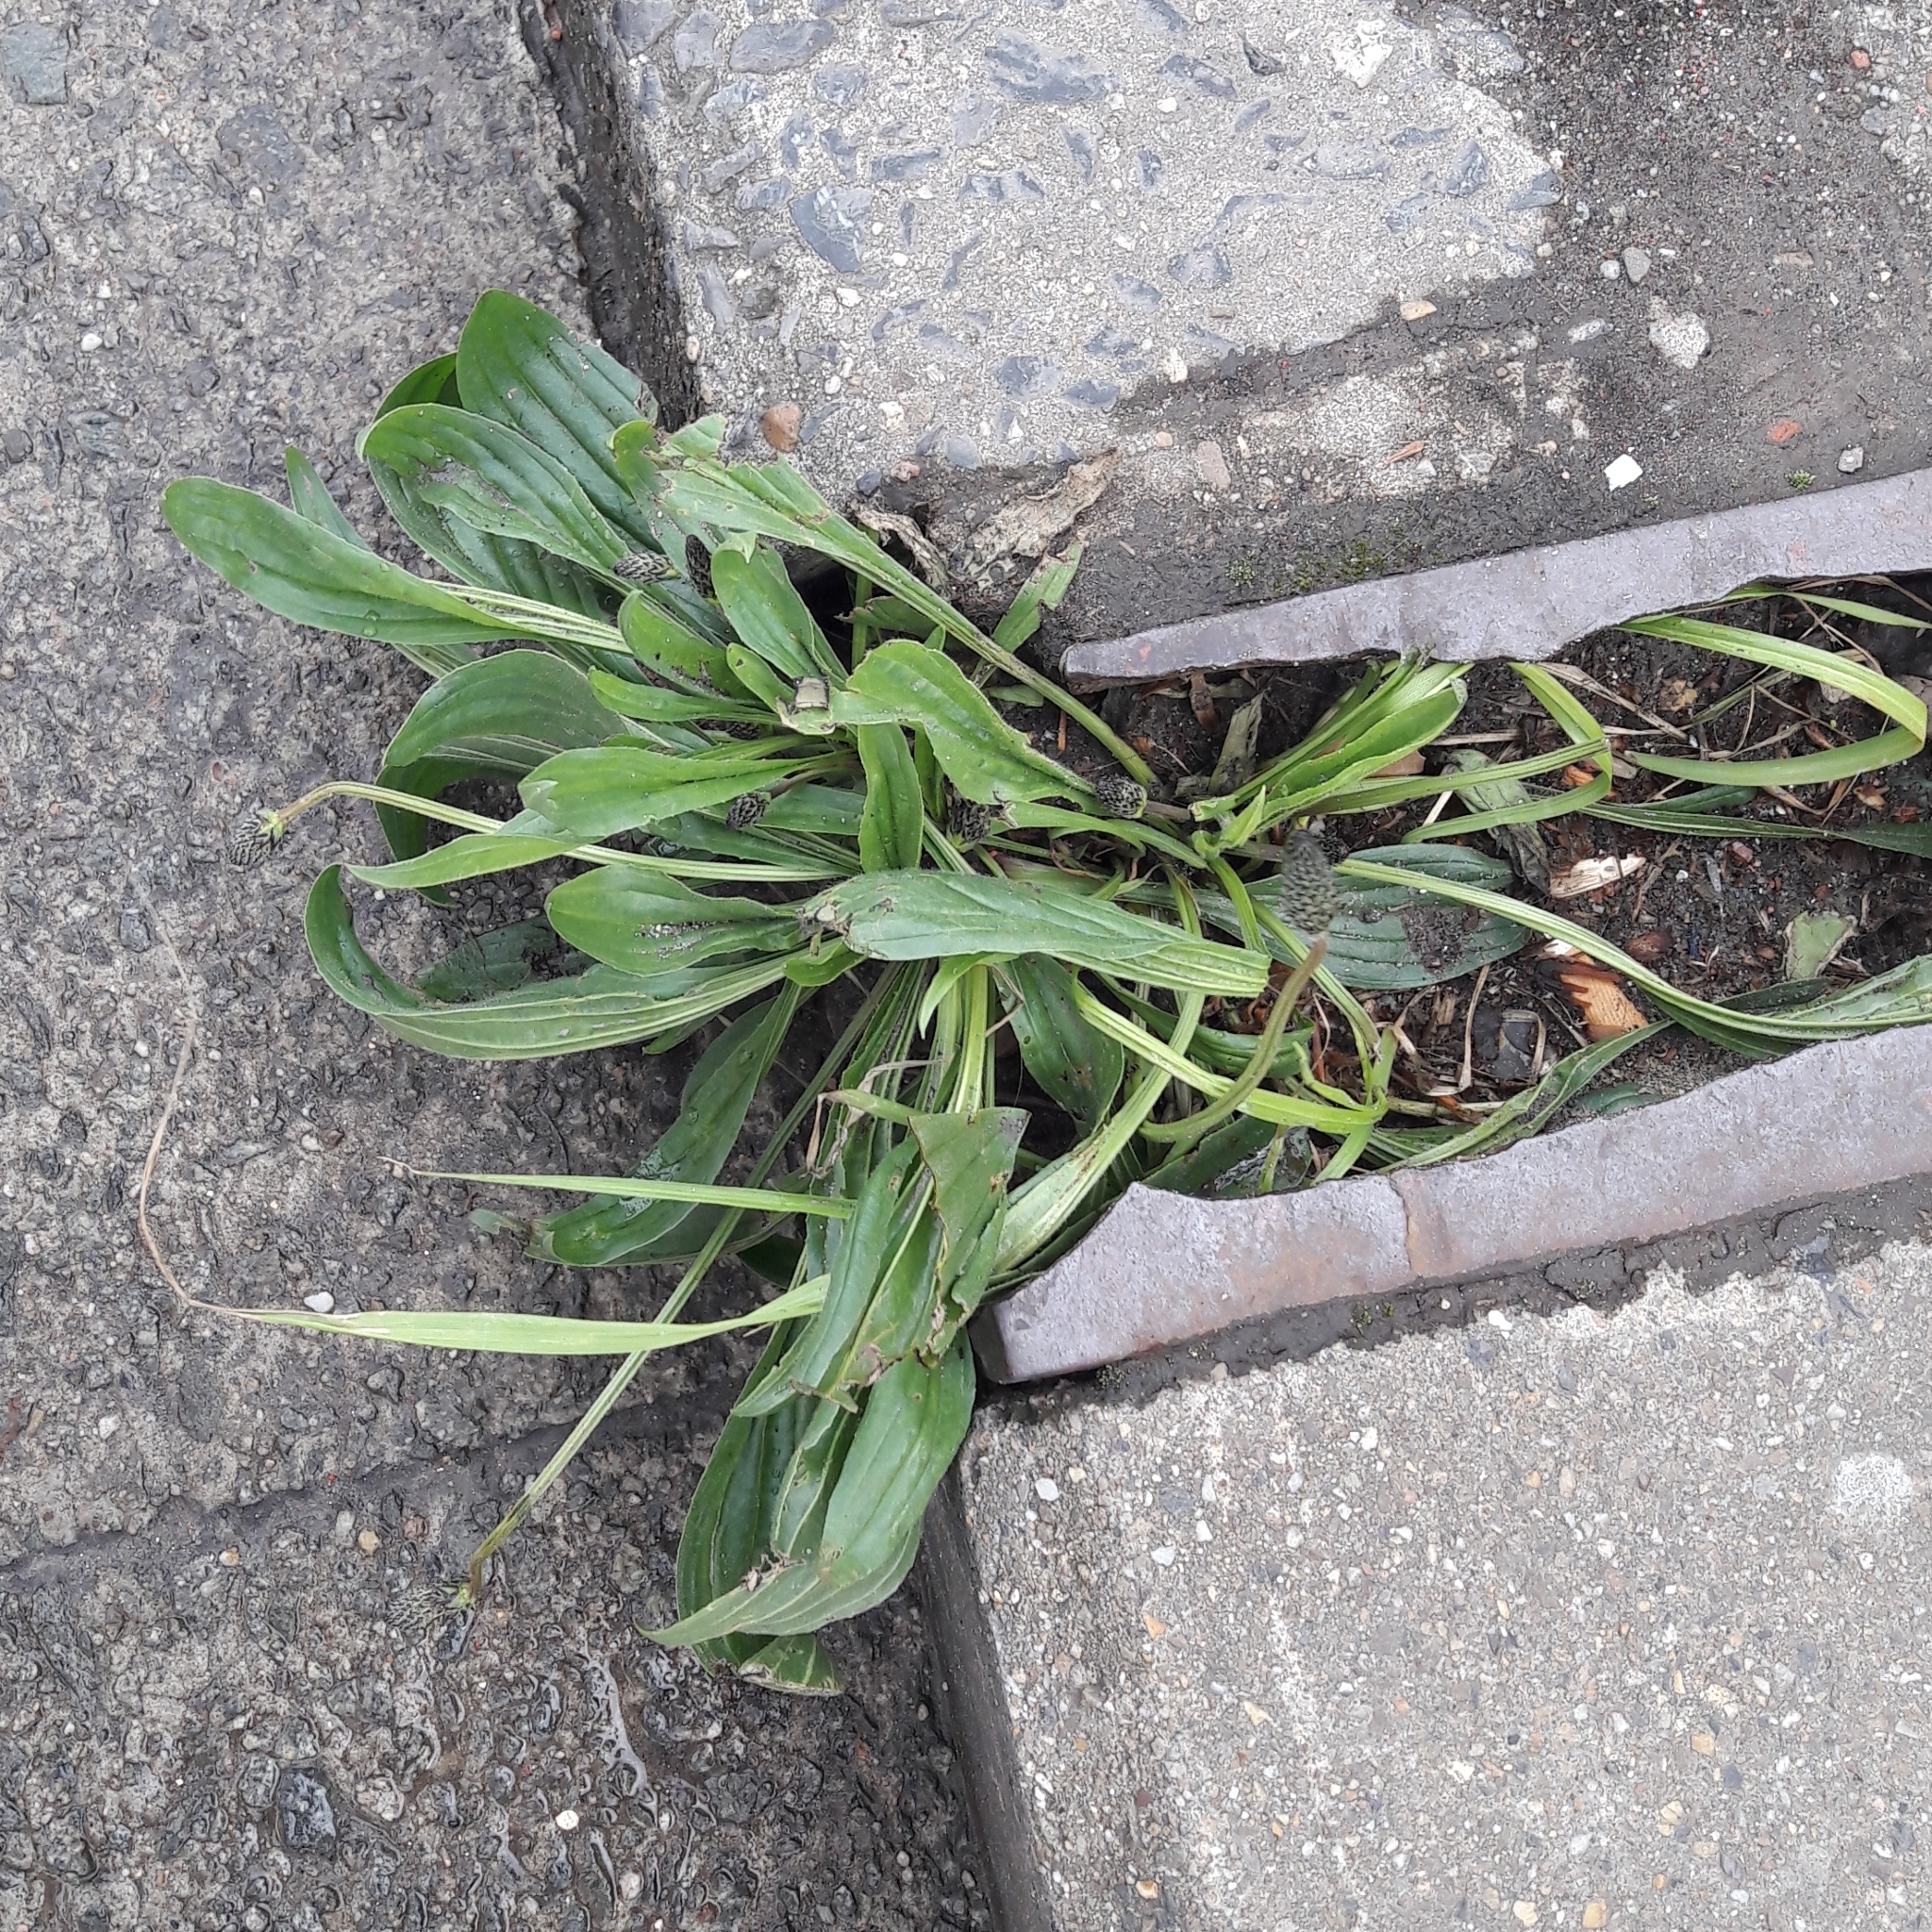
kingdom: Plantae
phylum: Tracheophyta
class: Magnoliopsida
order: Lamiales
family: Plantaginaceae
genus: Plantago
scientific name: Plantago lanceolata
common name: Ribwort plantain
